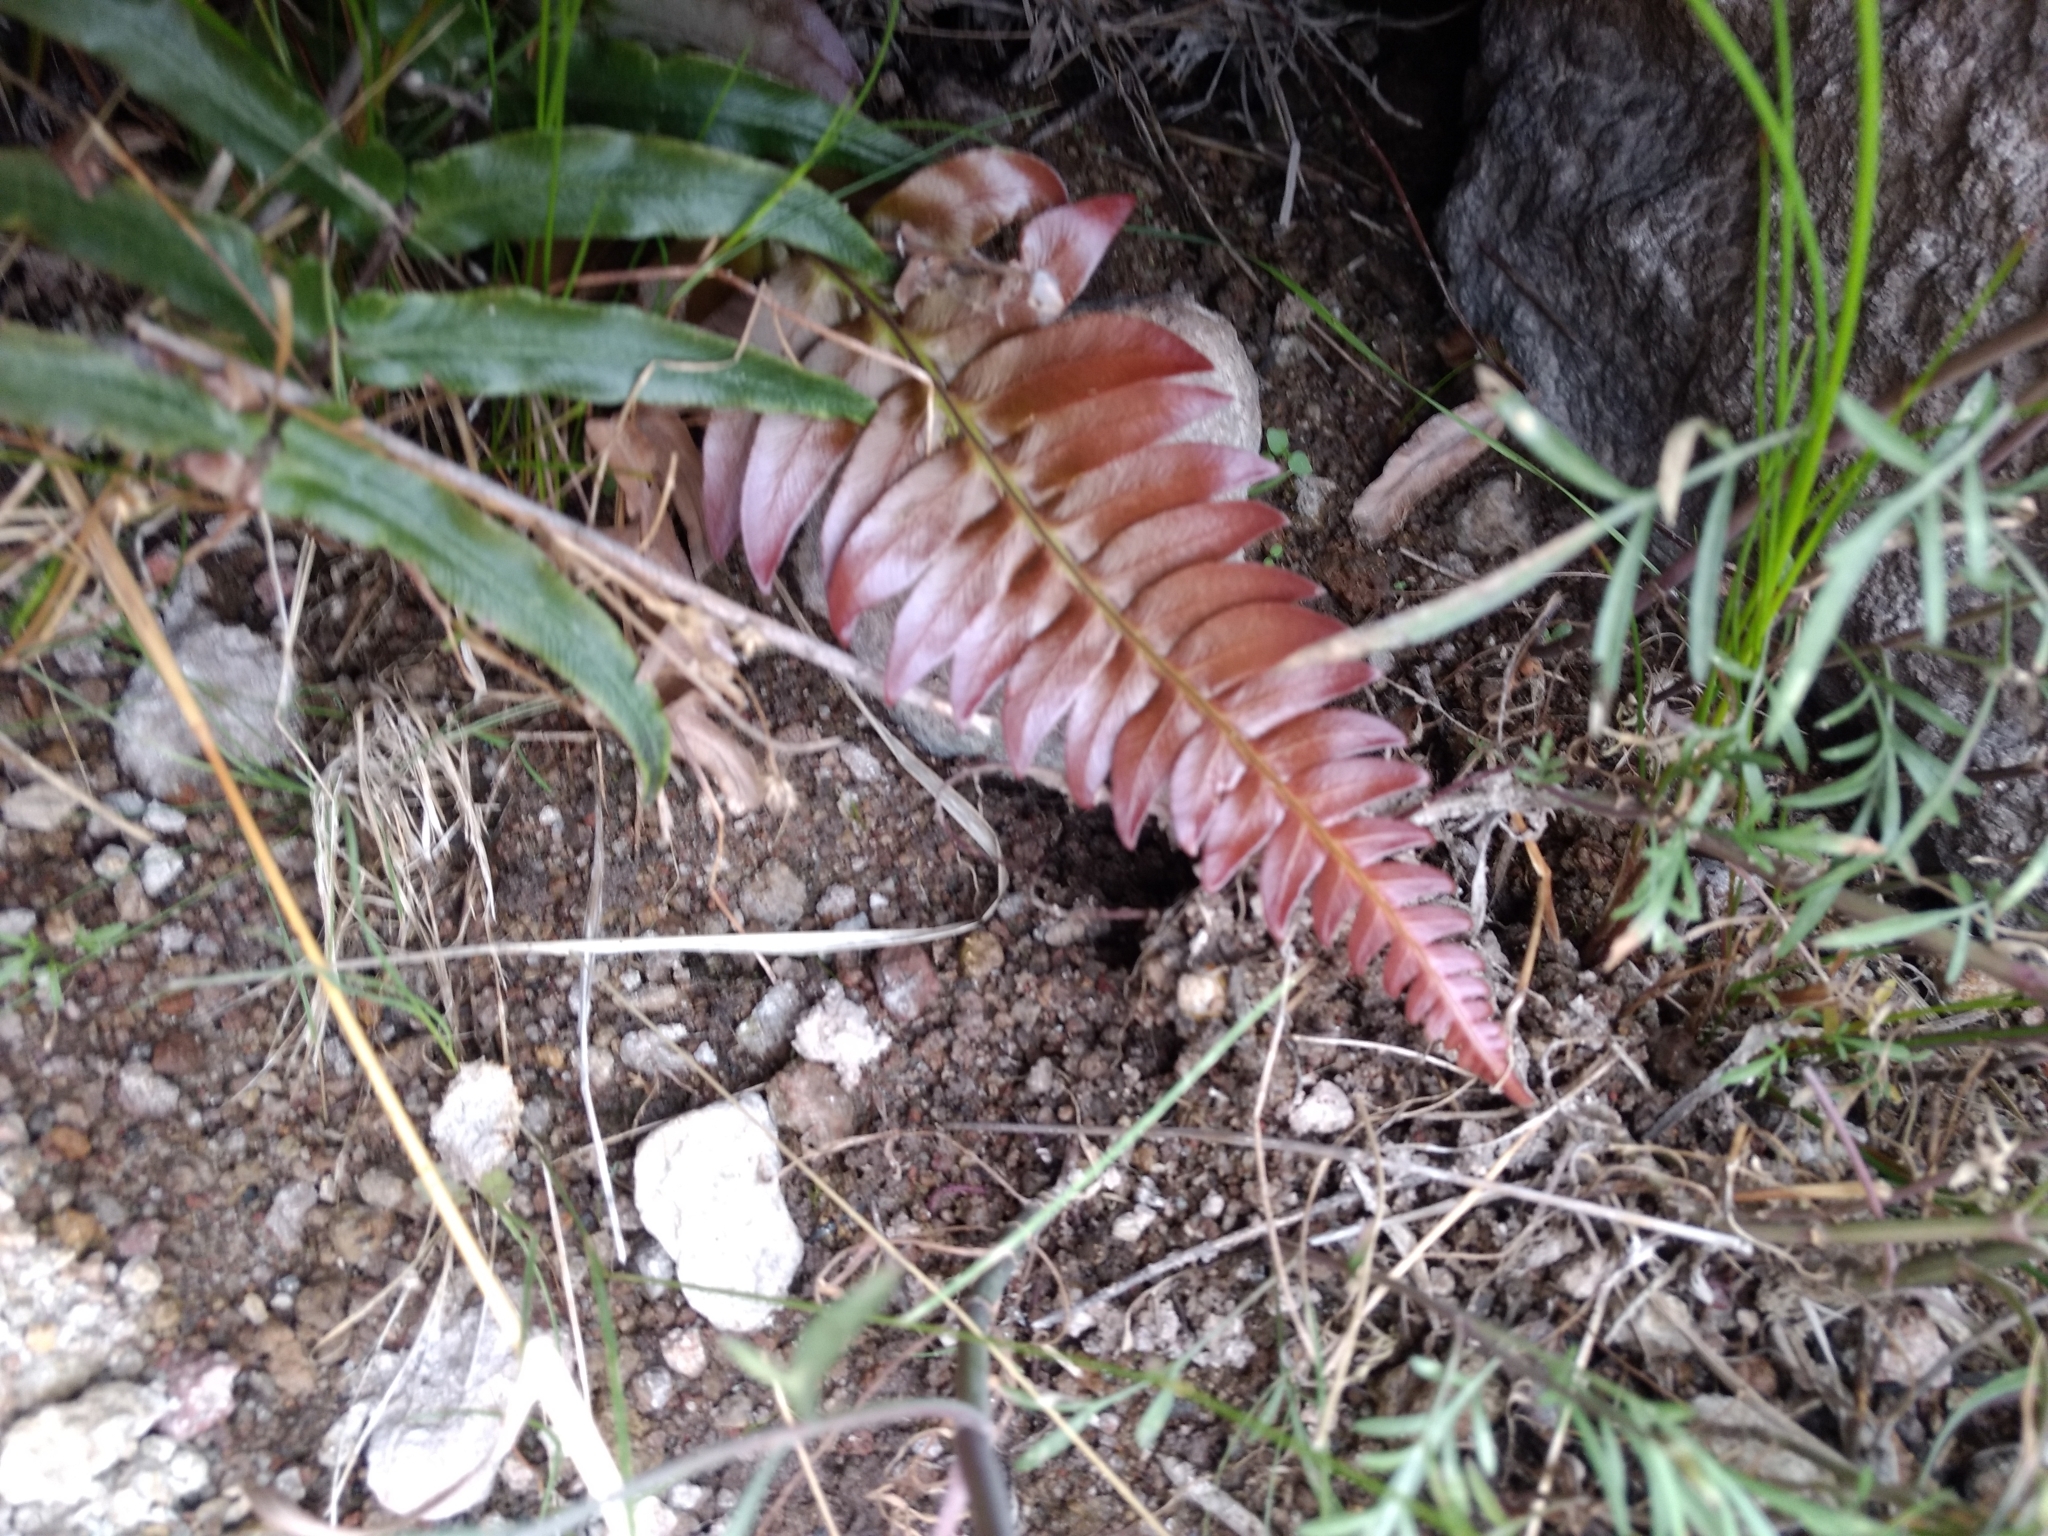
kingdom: Plantae
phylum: Tracheophyta
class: Polypodiopsida
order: Polypodiales
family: Blechnaceae
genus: Blechnum
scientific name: Blechnum occidentale
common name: Hammock fern
